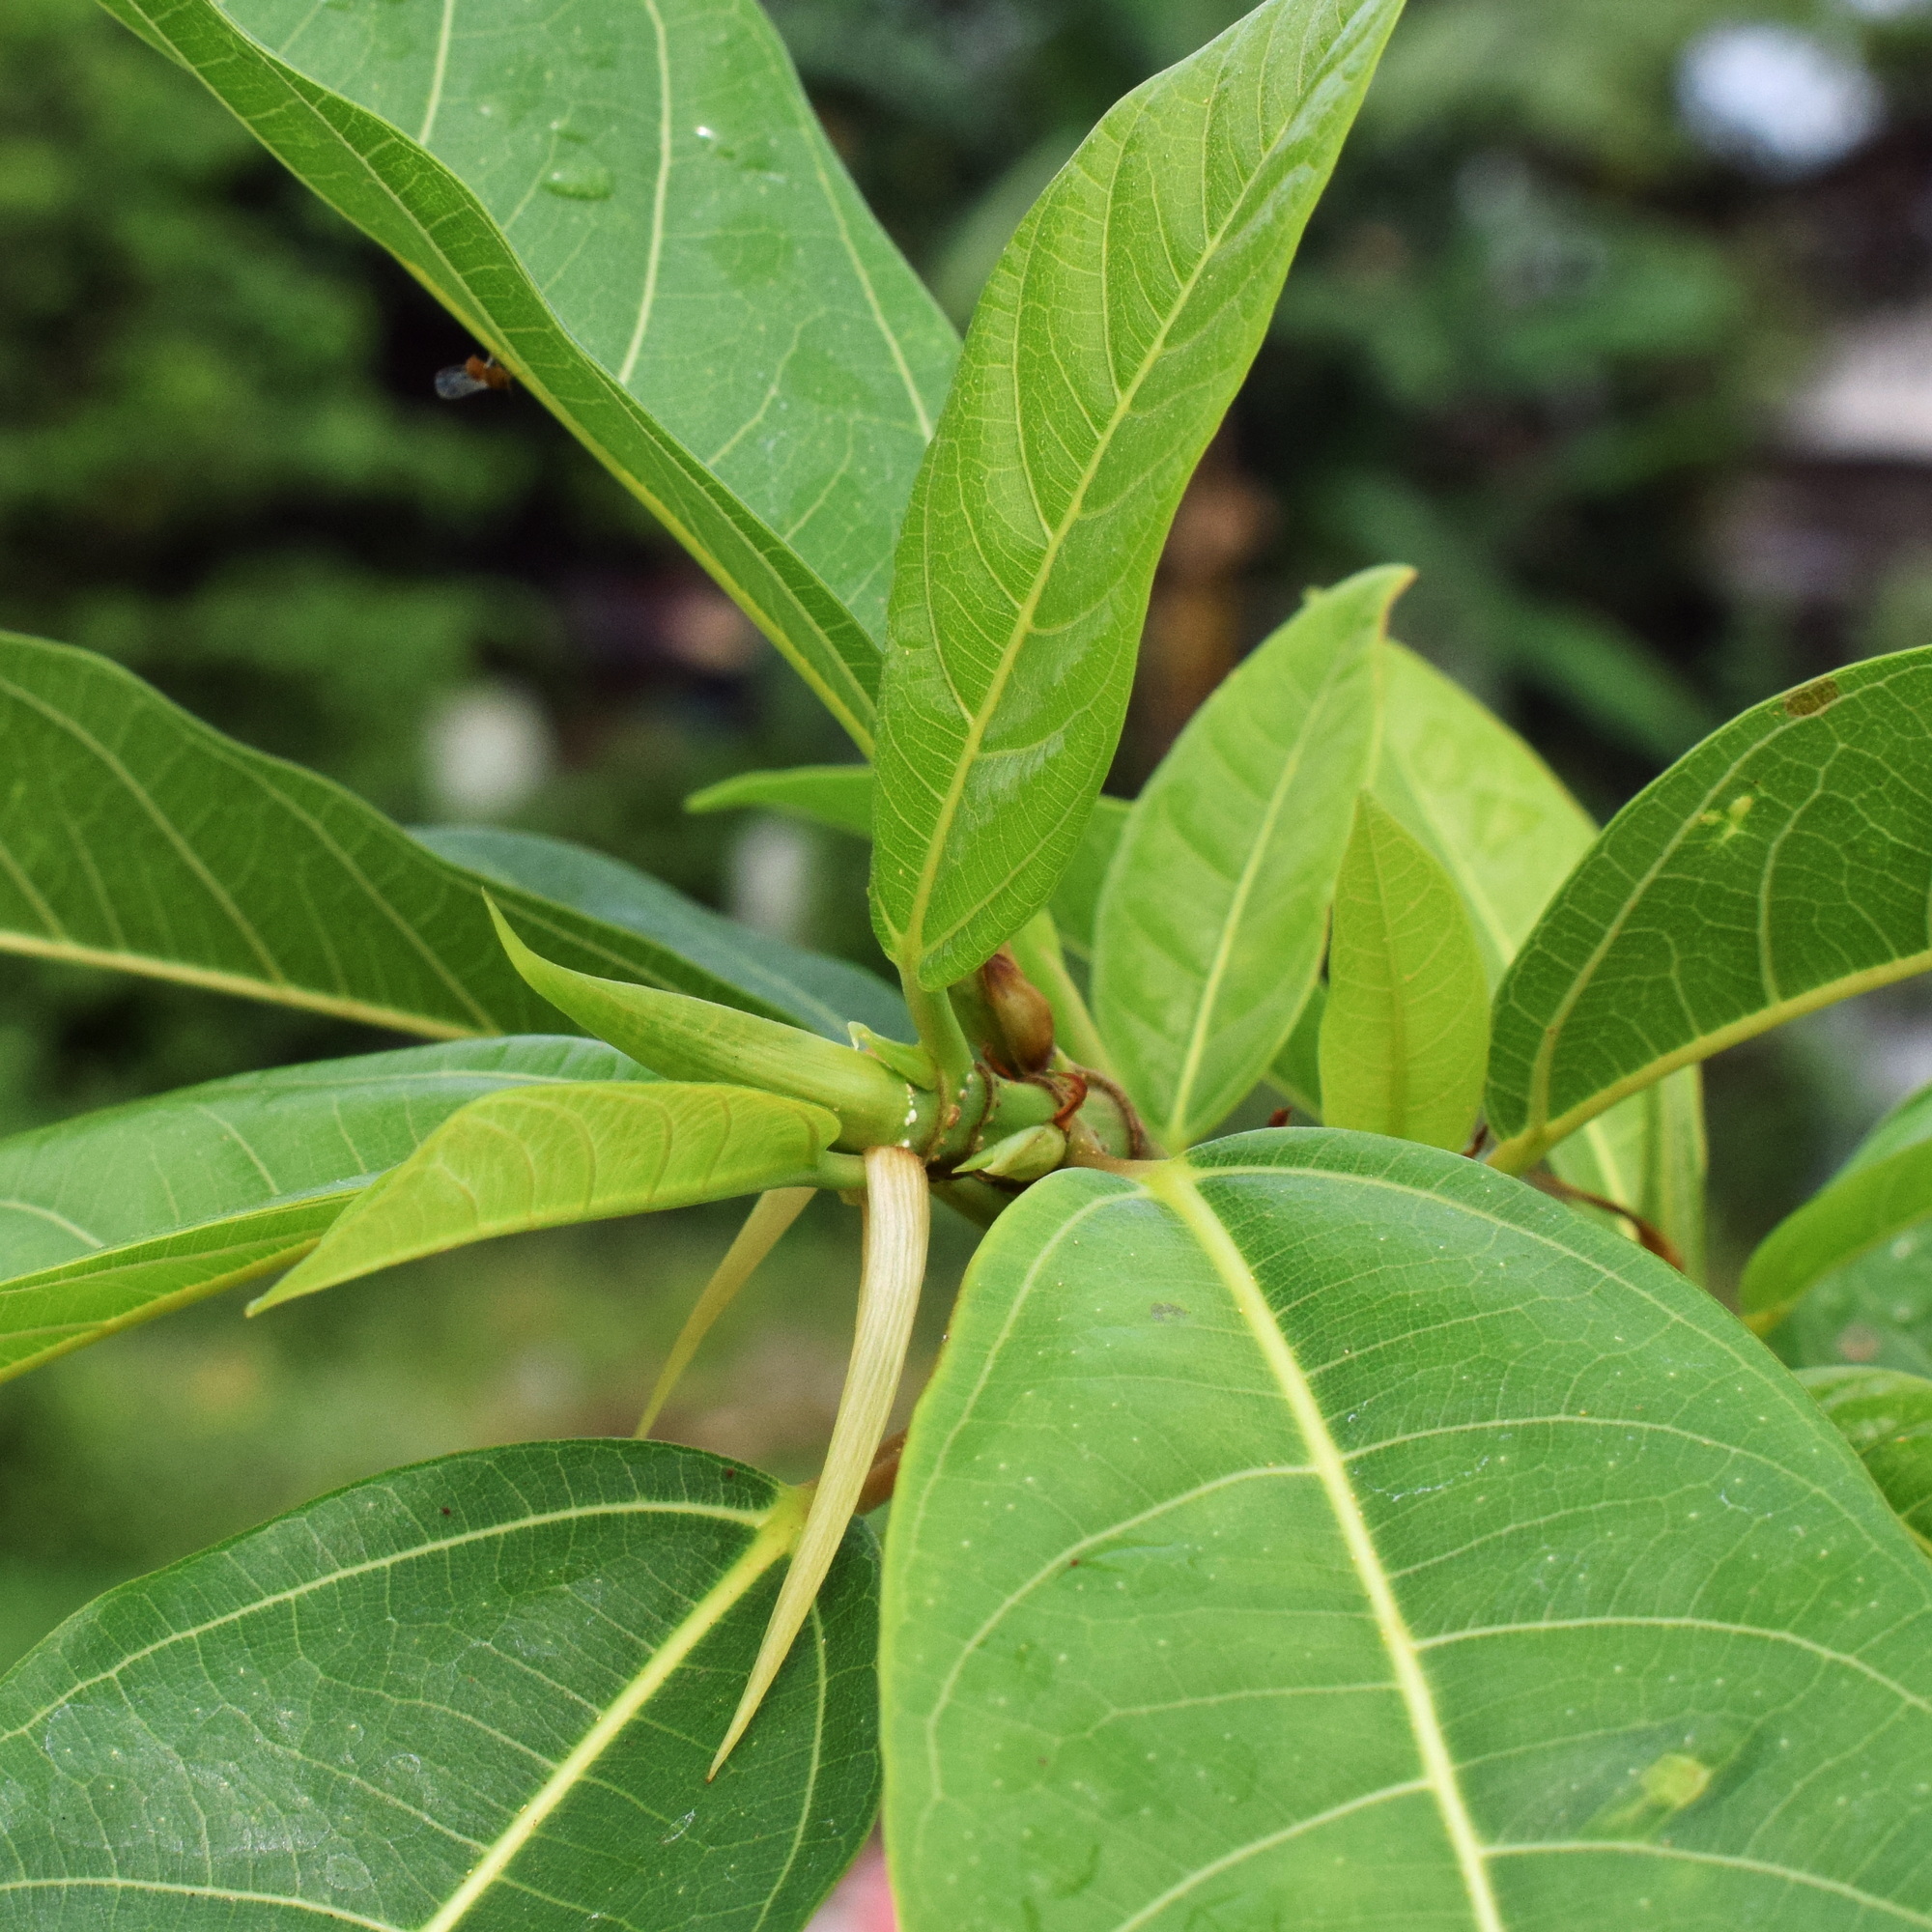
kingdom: Plantae
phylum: Tracheophyta
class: Magnoliopsida
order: Rosales
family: Moraceae
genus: Ficus
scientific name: Ficus racemosa
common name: Cluster fig
